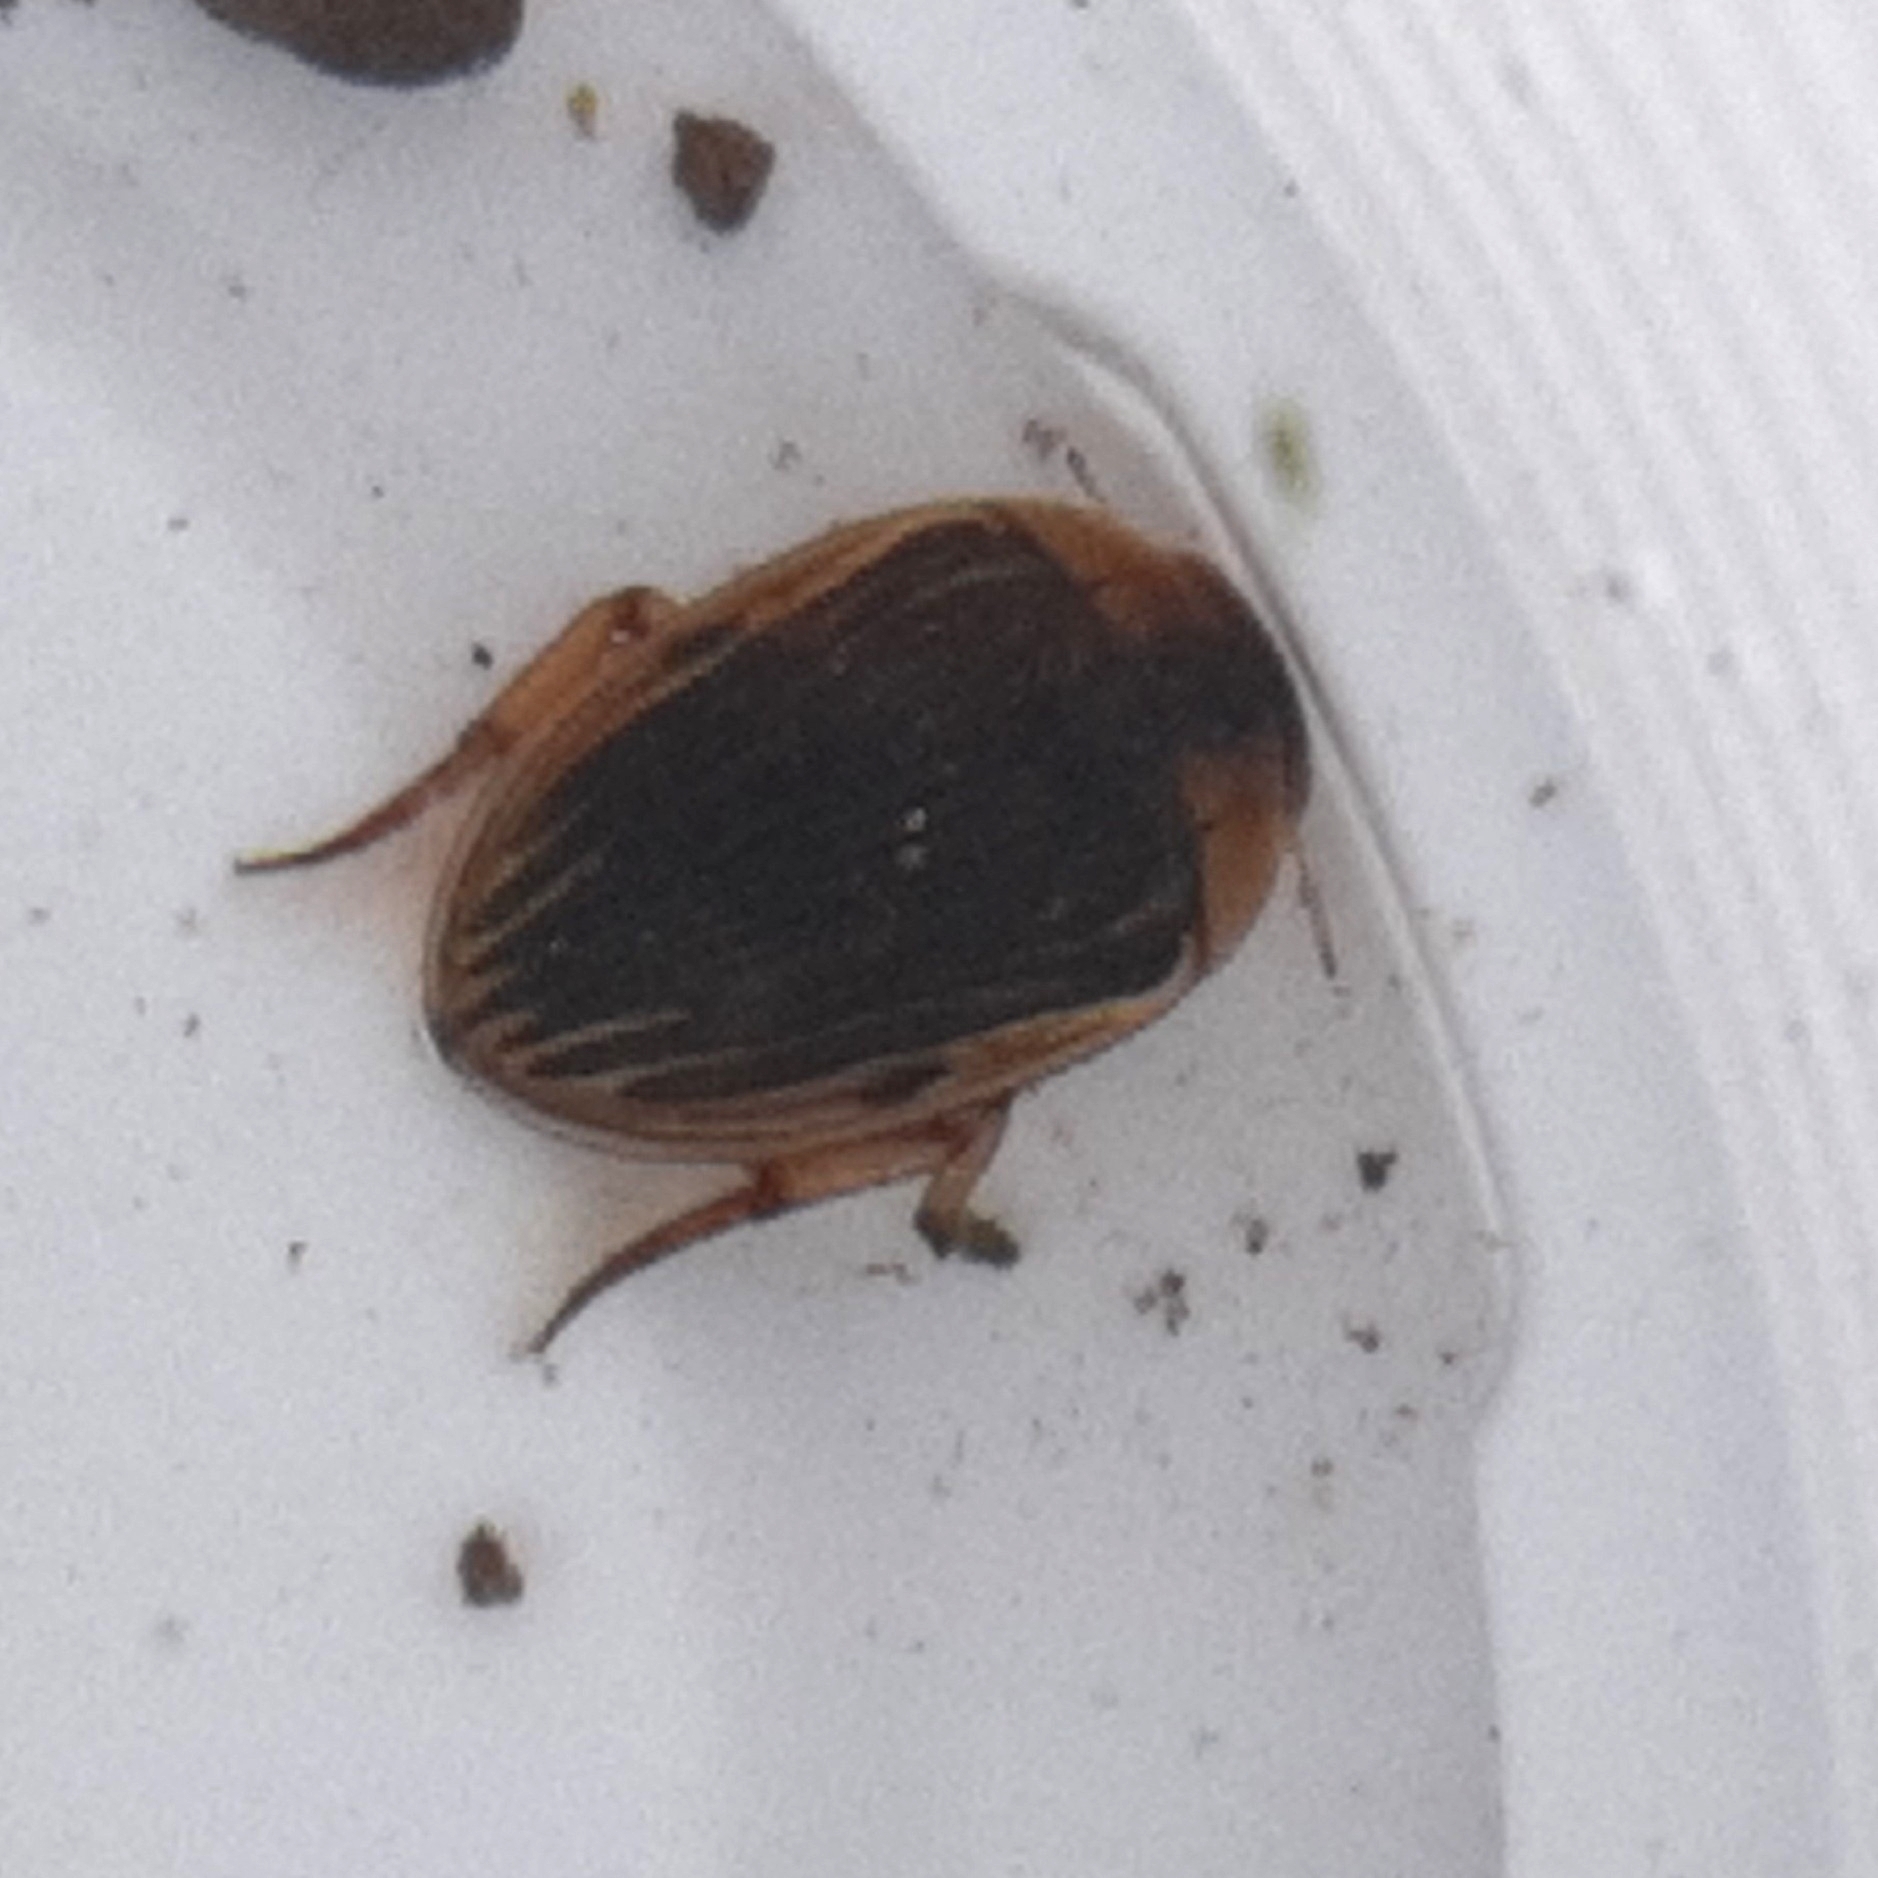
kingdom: Animalia
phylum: Arthropoda
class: Insecta
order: Coleoptera
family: Hydrophilidae
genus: Tropisternus
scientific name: Tropisternus collaris
